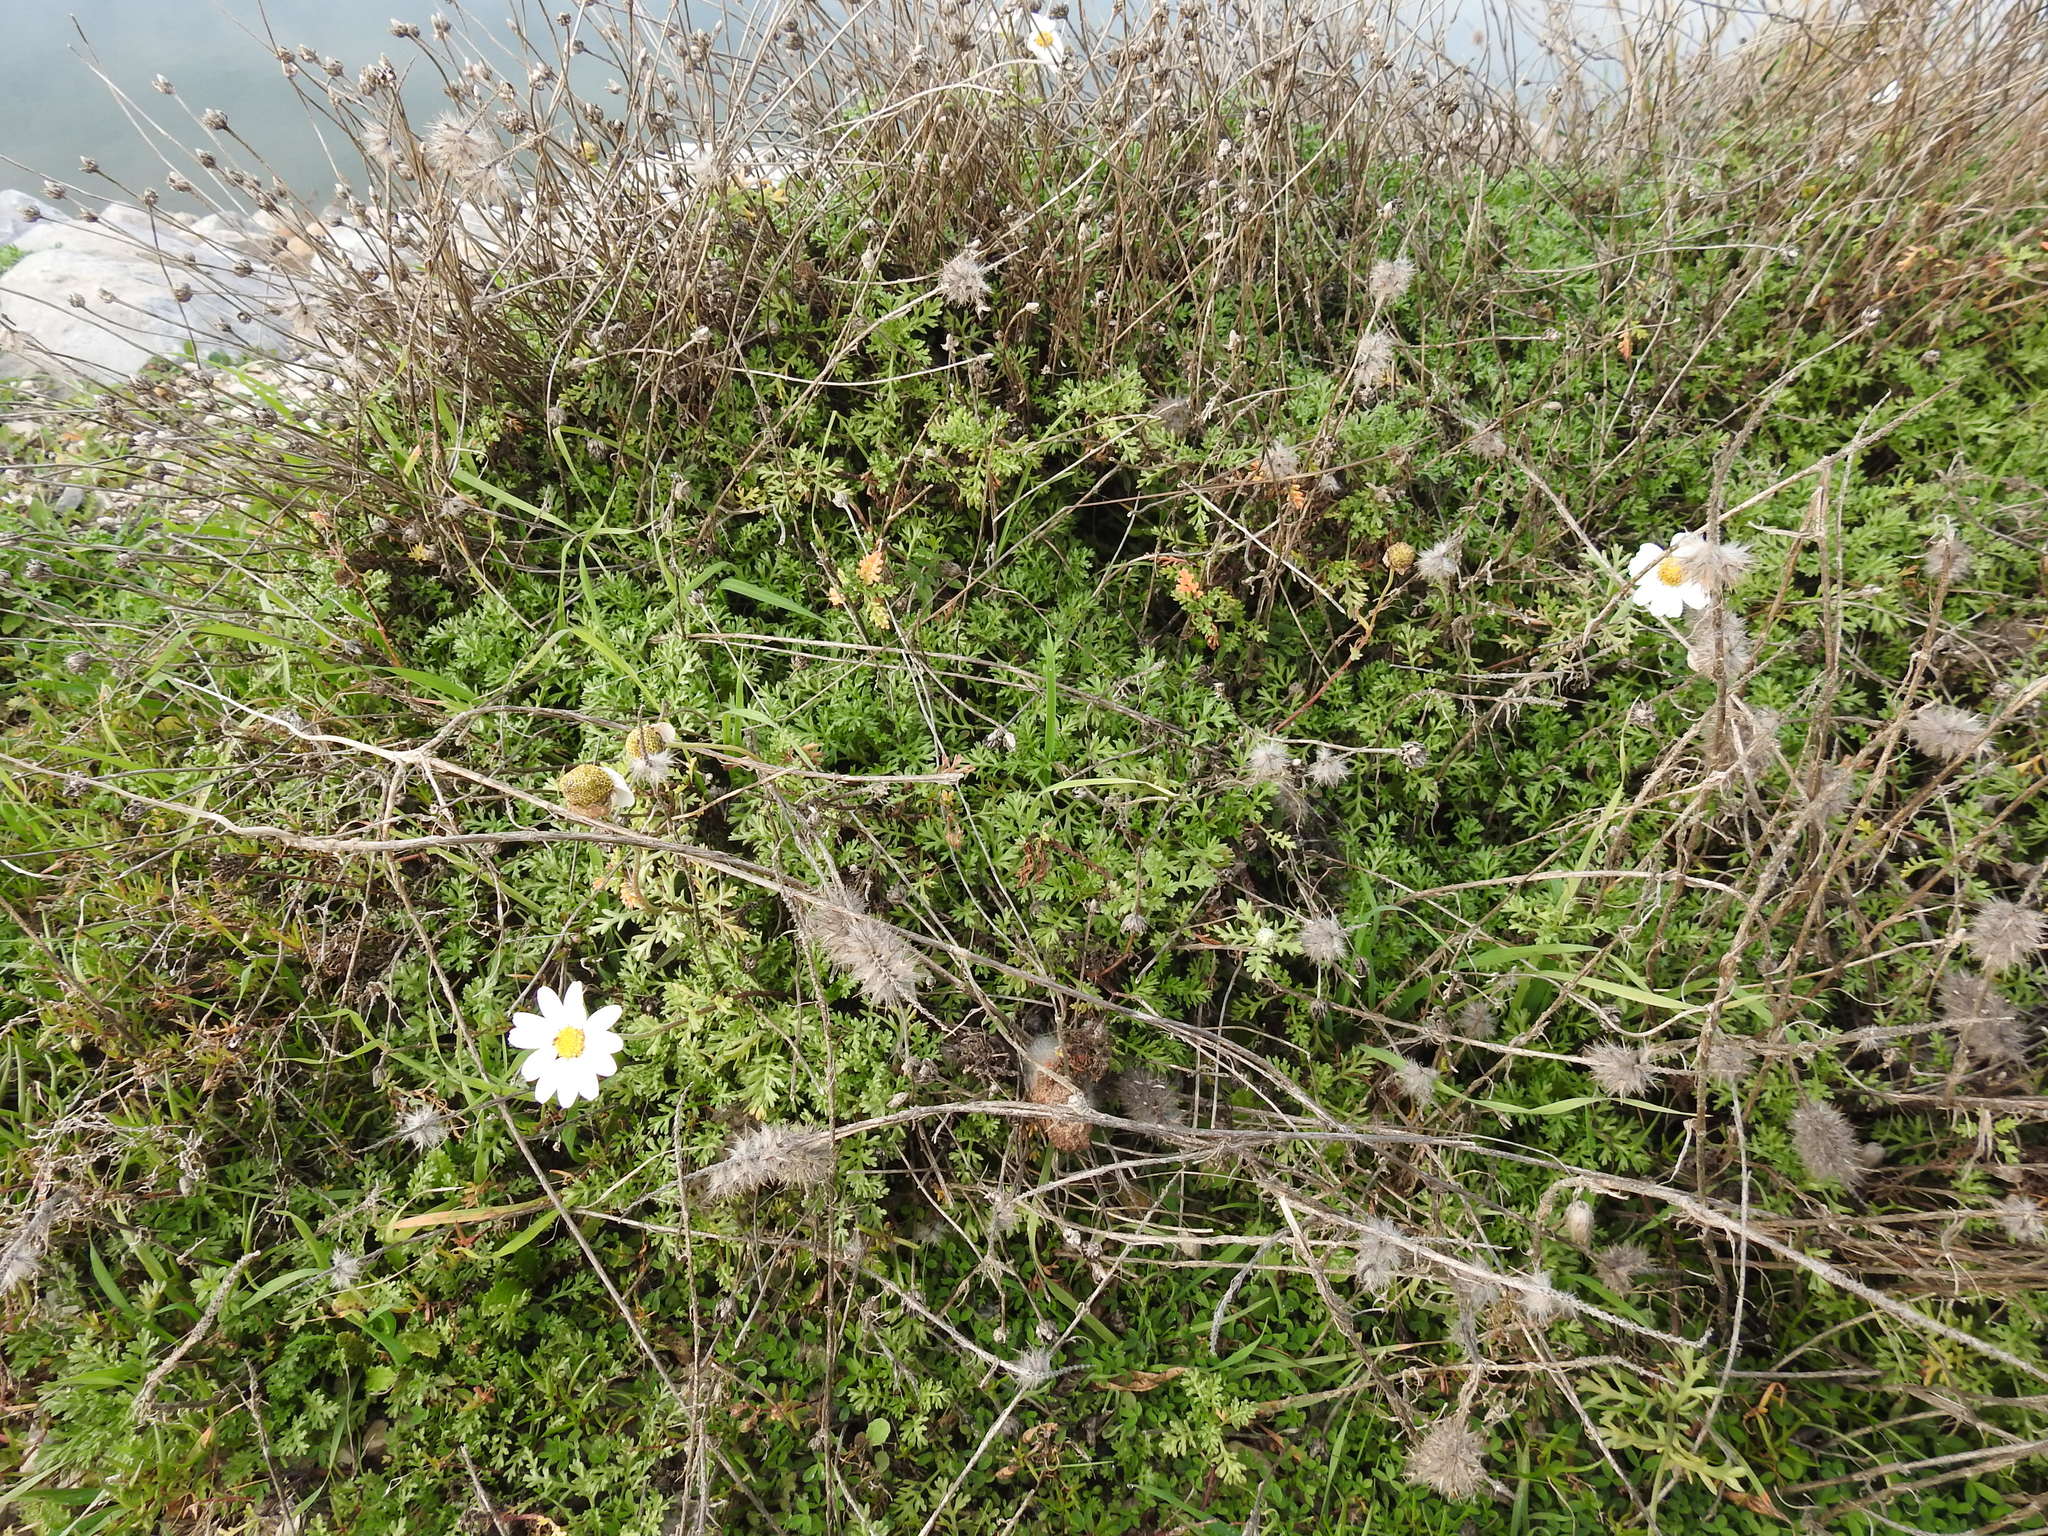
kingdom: Plantae
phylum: Tracheophyta
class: Magnoliopsida
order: Asterales
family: Asteraceae
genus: Anthemis
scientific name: Anthemis maritima
